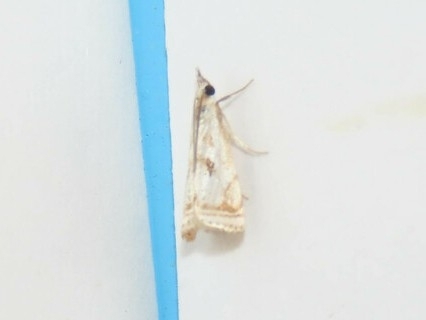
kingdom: Animalia
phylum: Arthropoda
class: Insecta
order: Lepidoptera
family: Crambidae
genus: Microcrambus
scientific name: Microcrambus elegans
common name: Elegant grass-veneer
